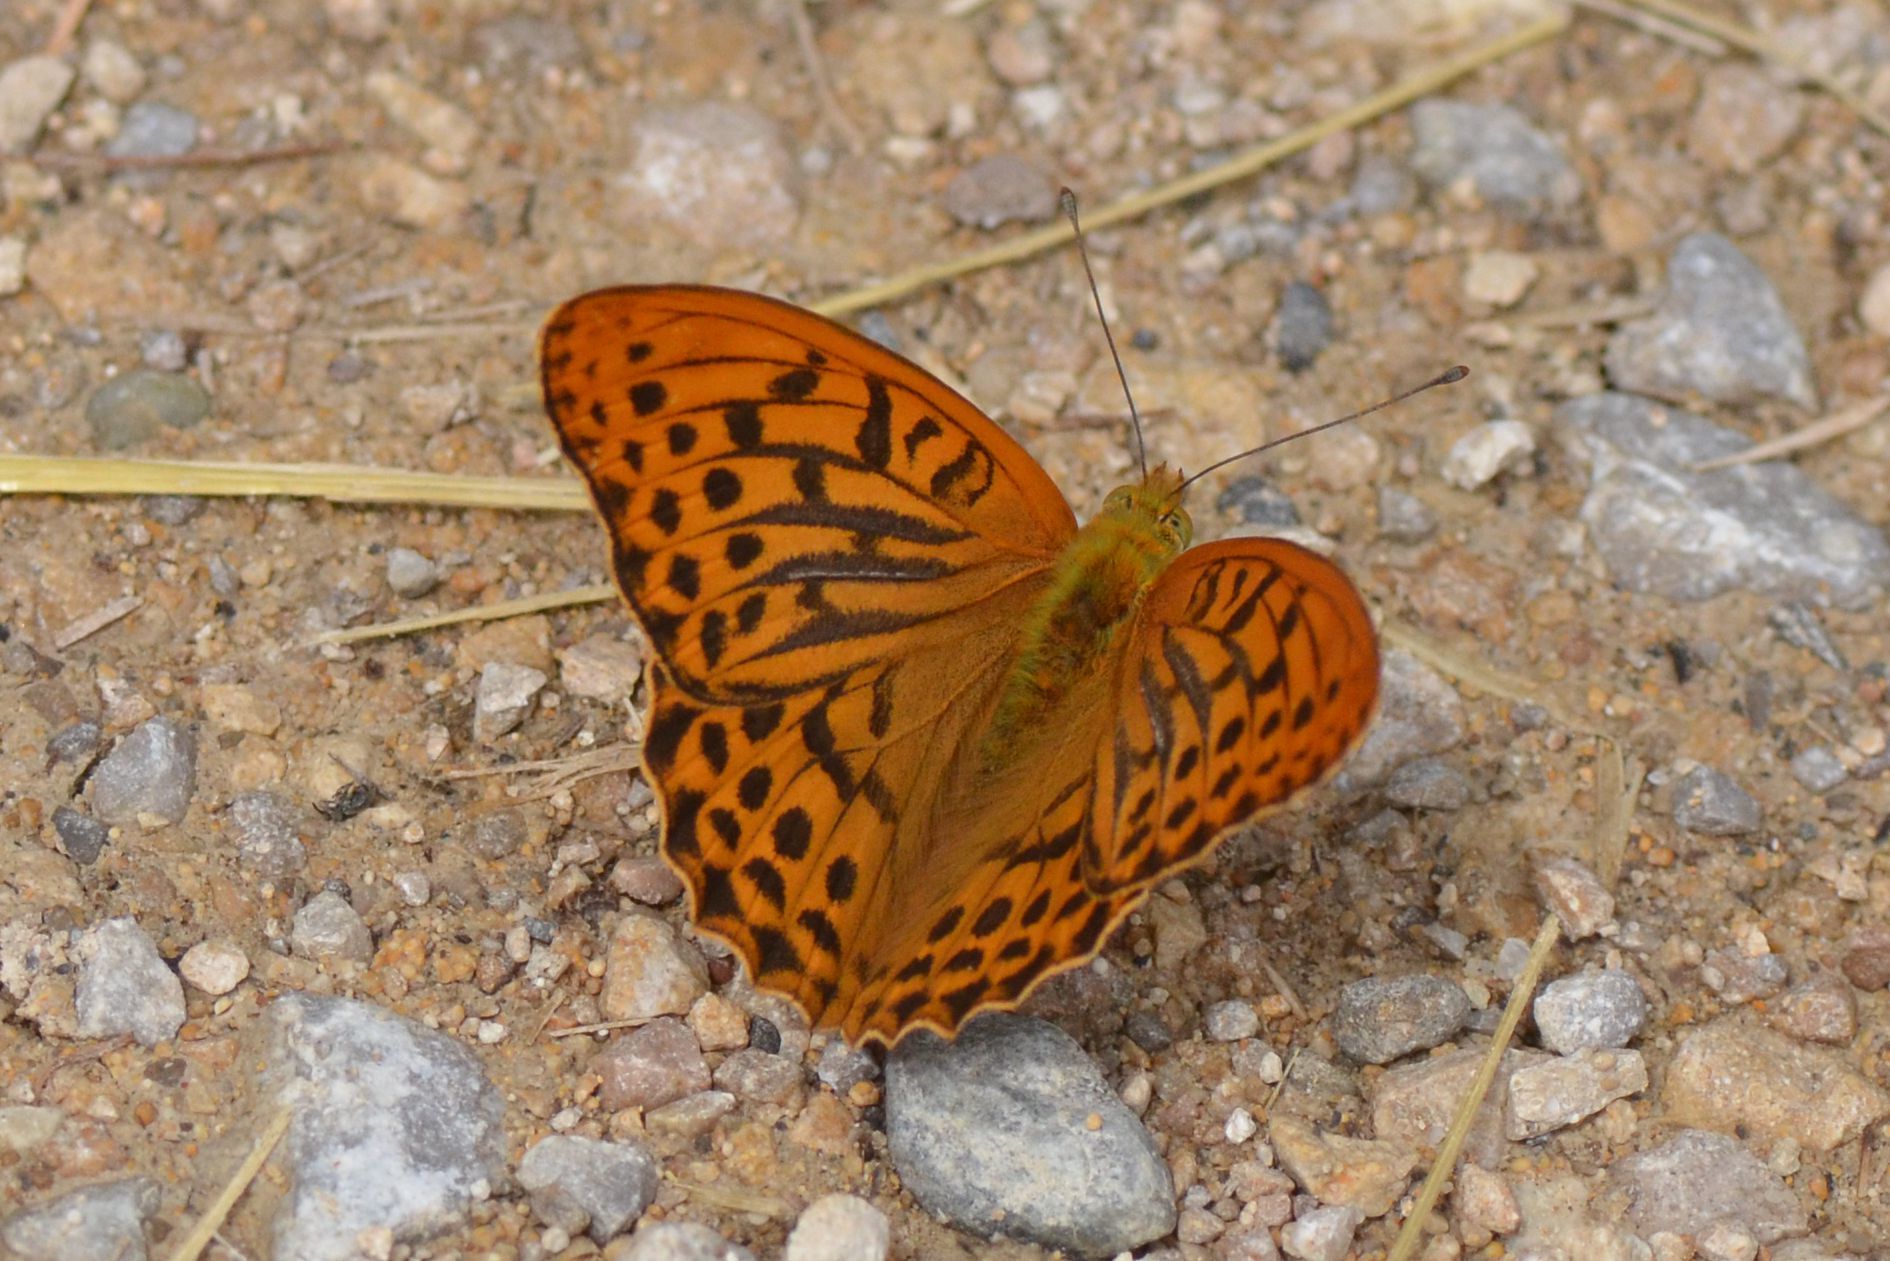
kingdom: Animalia
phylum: Arthropoda
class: Insecta
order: Lepidoptera
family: Nymphalidae
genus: Argynnis
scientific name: Argynnis paphia
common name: Silver-washed fritillary
